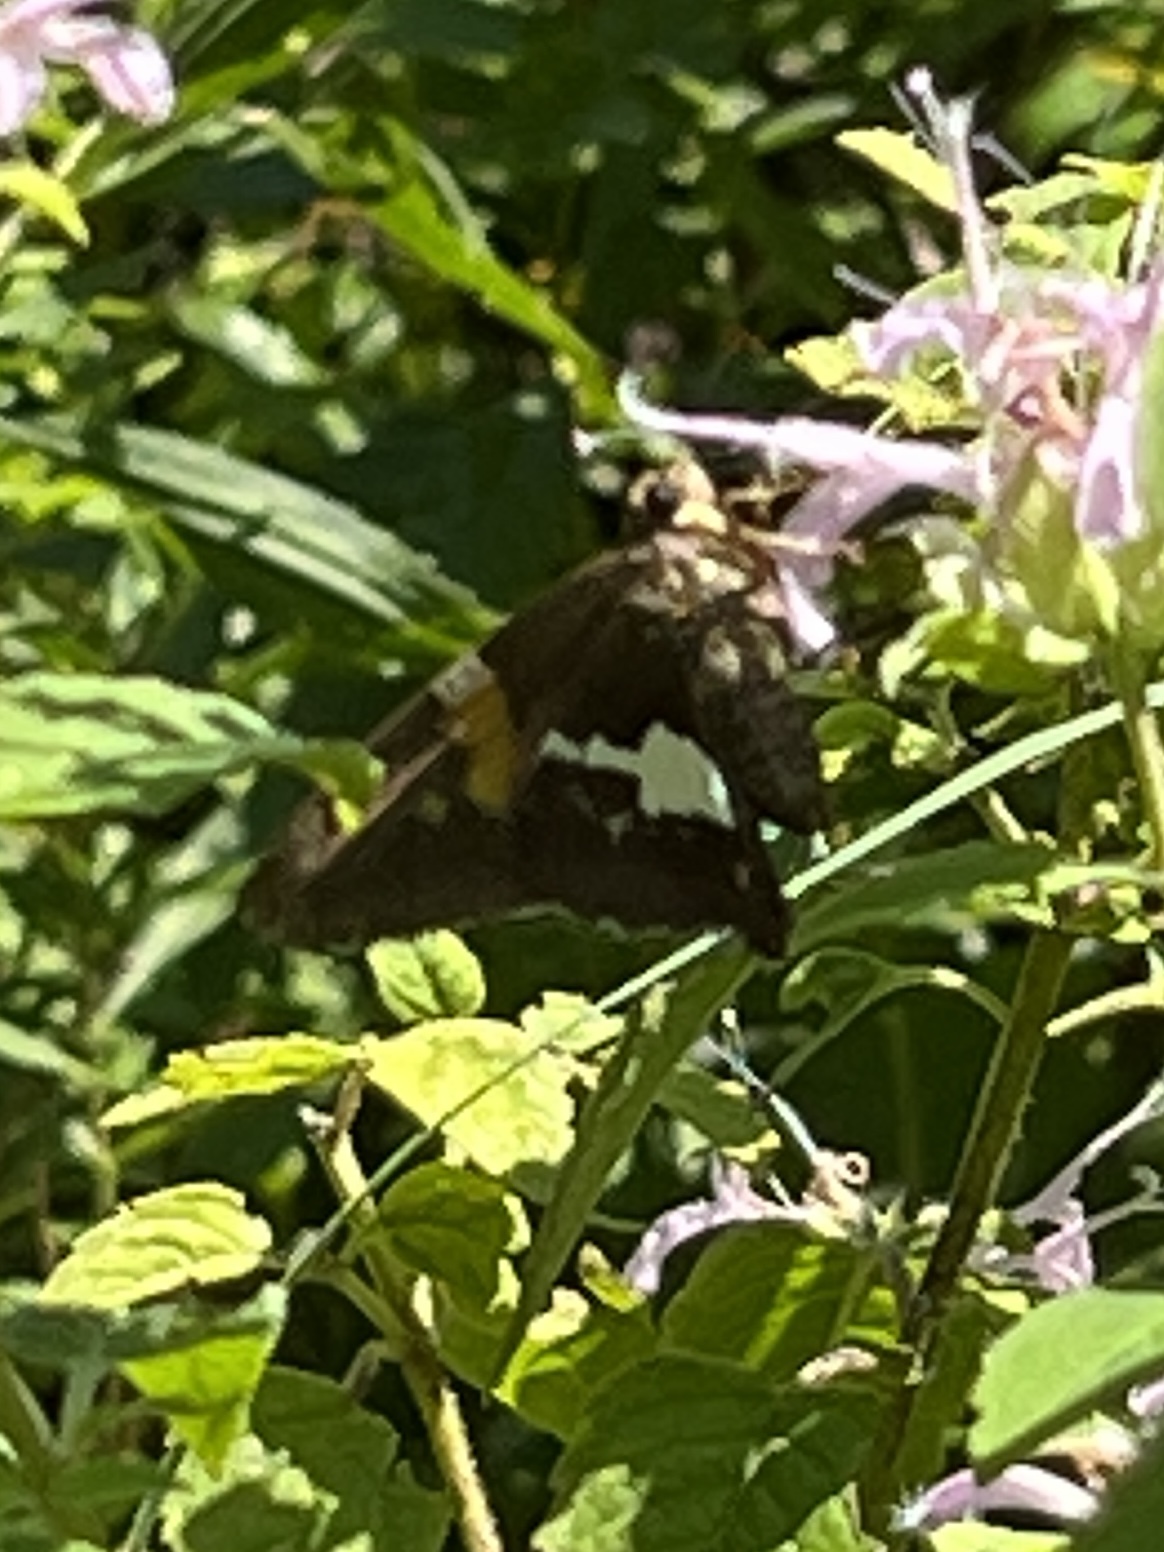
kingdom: Animalia
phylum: Arthropoda
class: Insecta
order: Lepidoptera
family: Hesperiidae
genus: Epargyreus
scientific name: Epargyreus clarus
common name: Silver-spotted skipper
